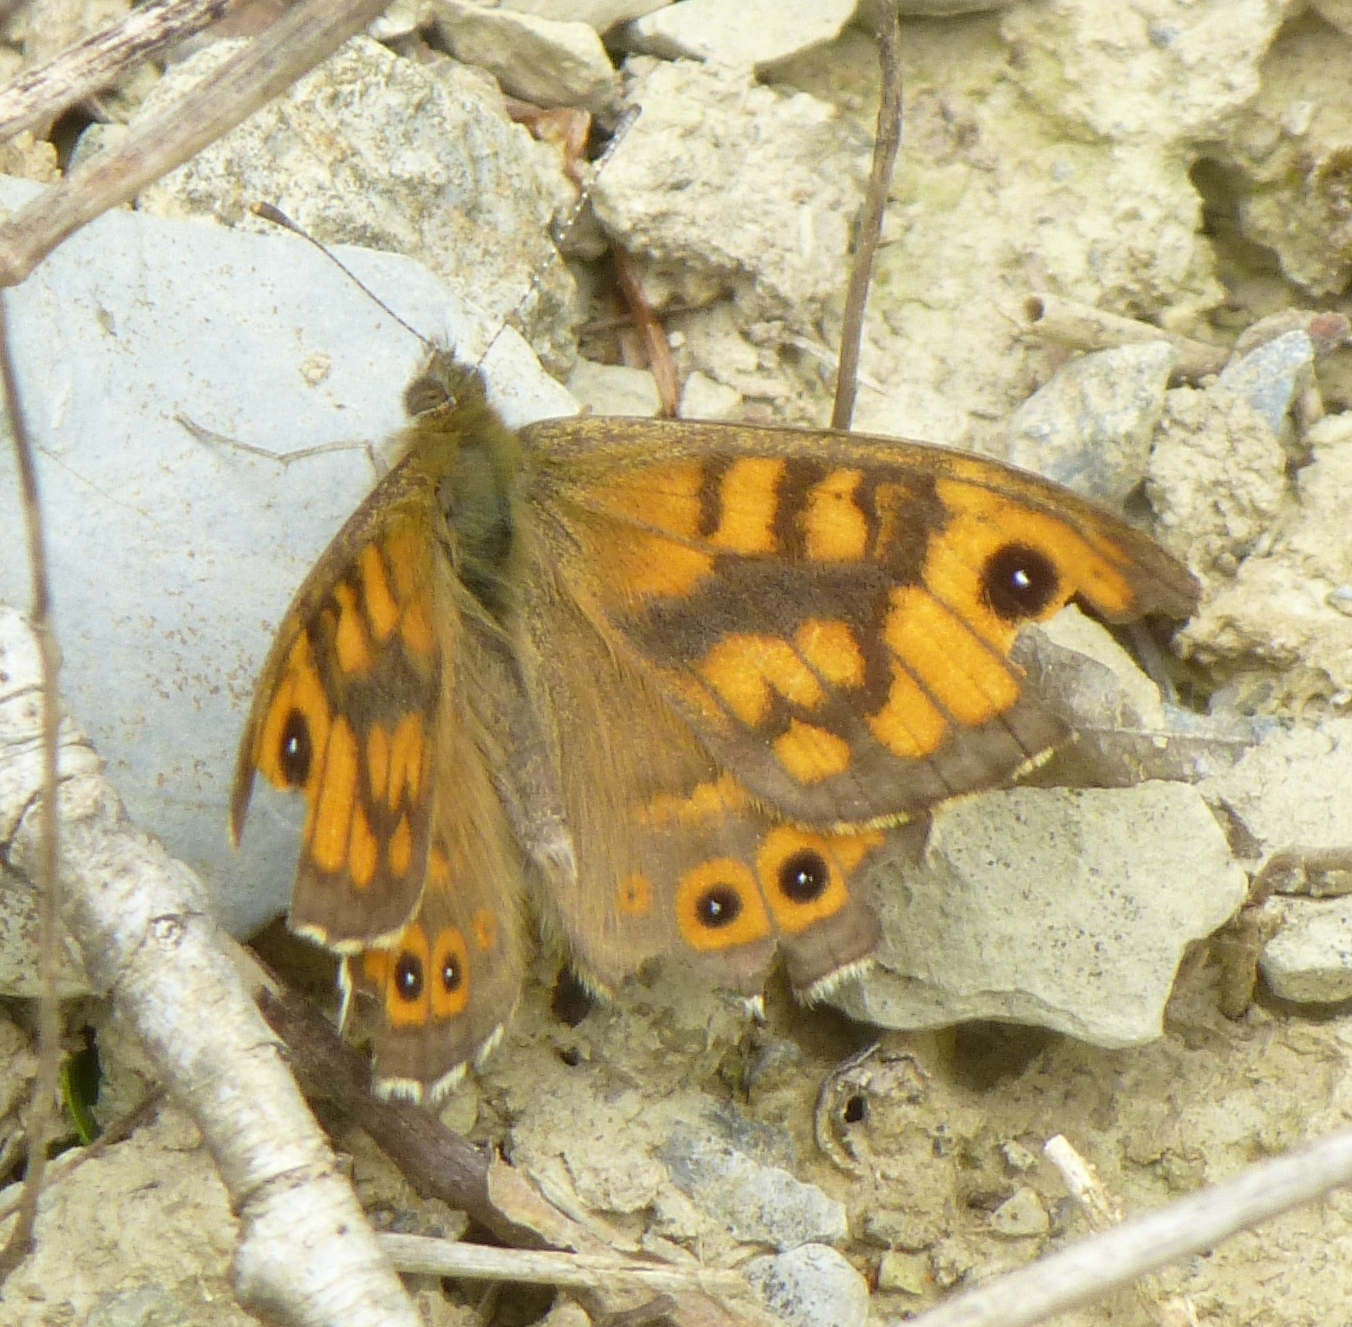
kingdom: Animalia
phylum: Arthropoda
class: Insecta
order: Lepidoptera
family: Nymphalidae
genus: Pararge
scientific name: Pararge Lasiommata megera
